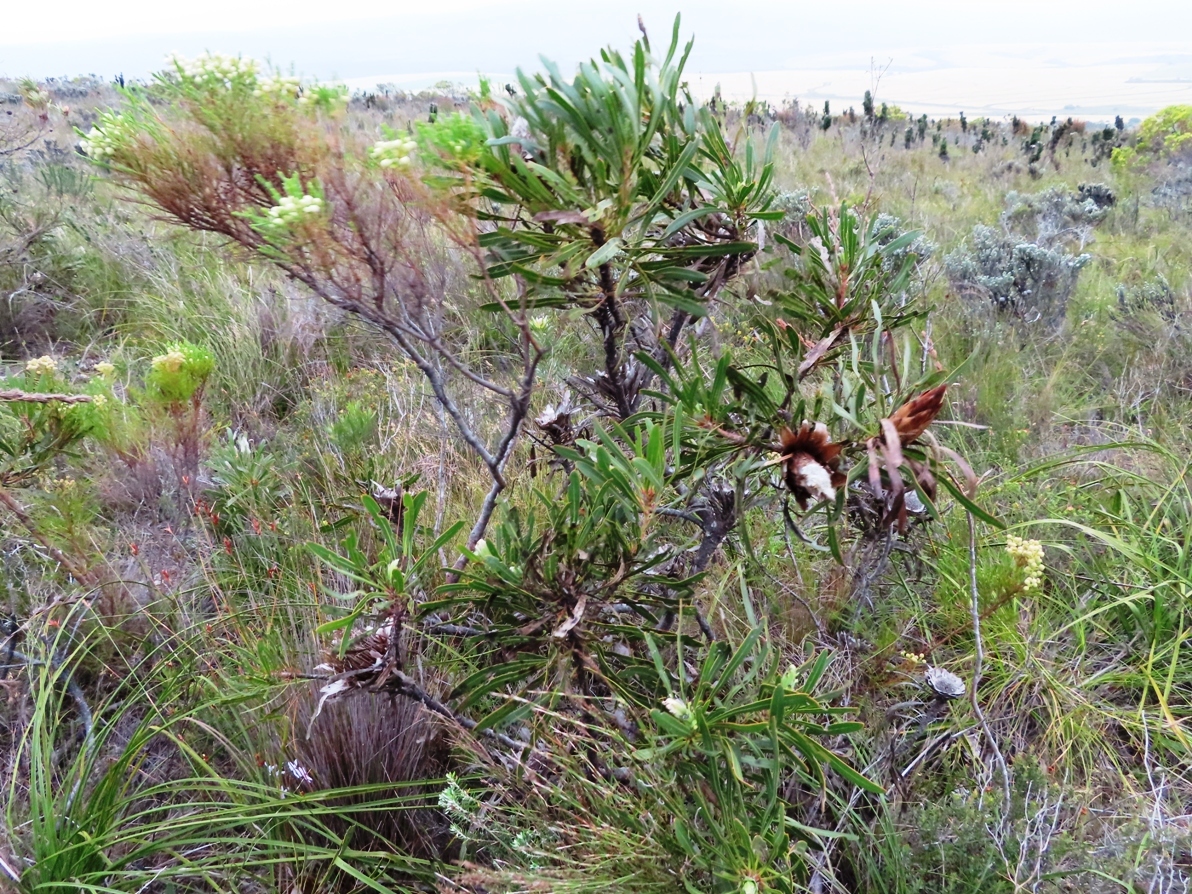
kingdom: Plantae
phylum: Tracheophyta
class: Magnoliopsida
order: Proteales
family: Proteaceae
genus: Protea
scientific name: Protea longifolia
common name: Long-leaf sugarbush
